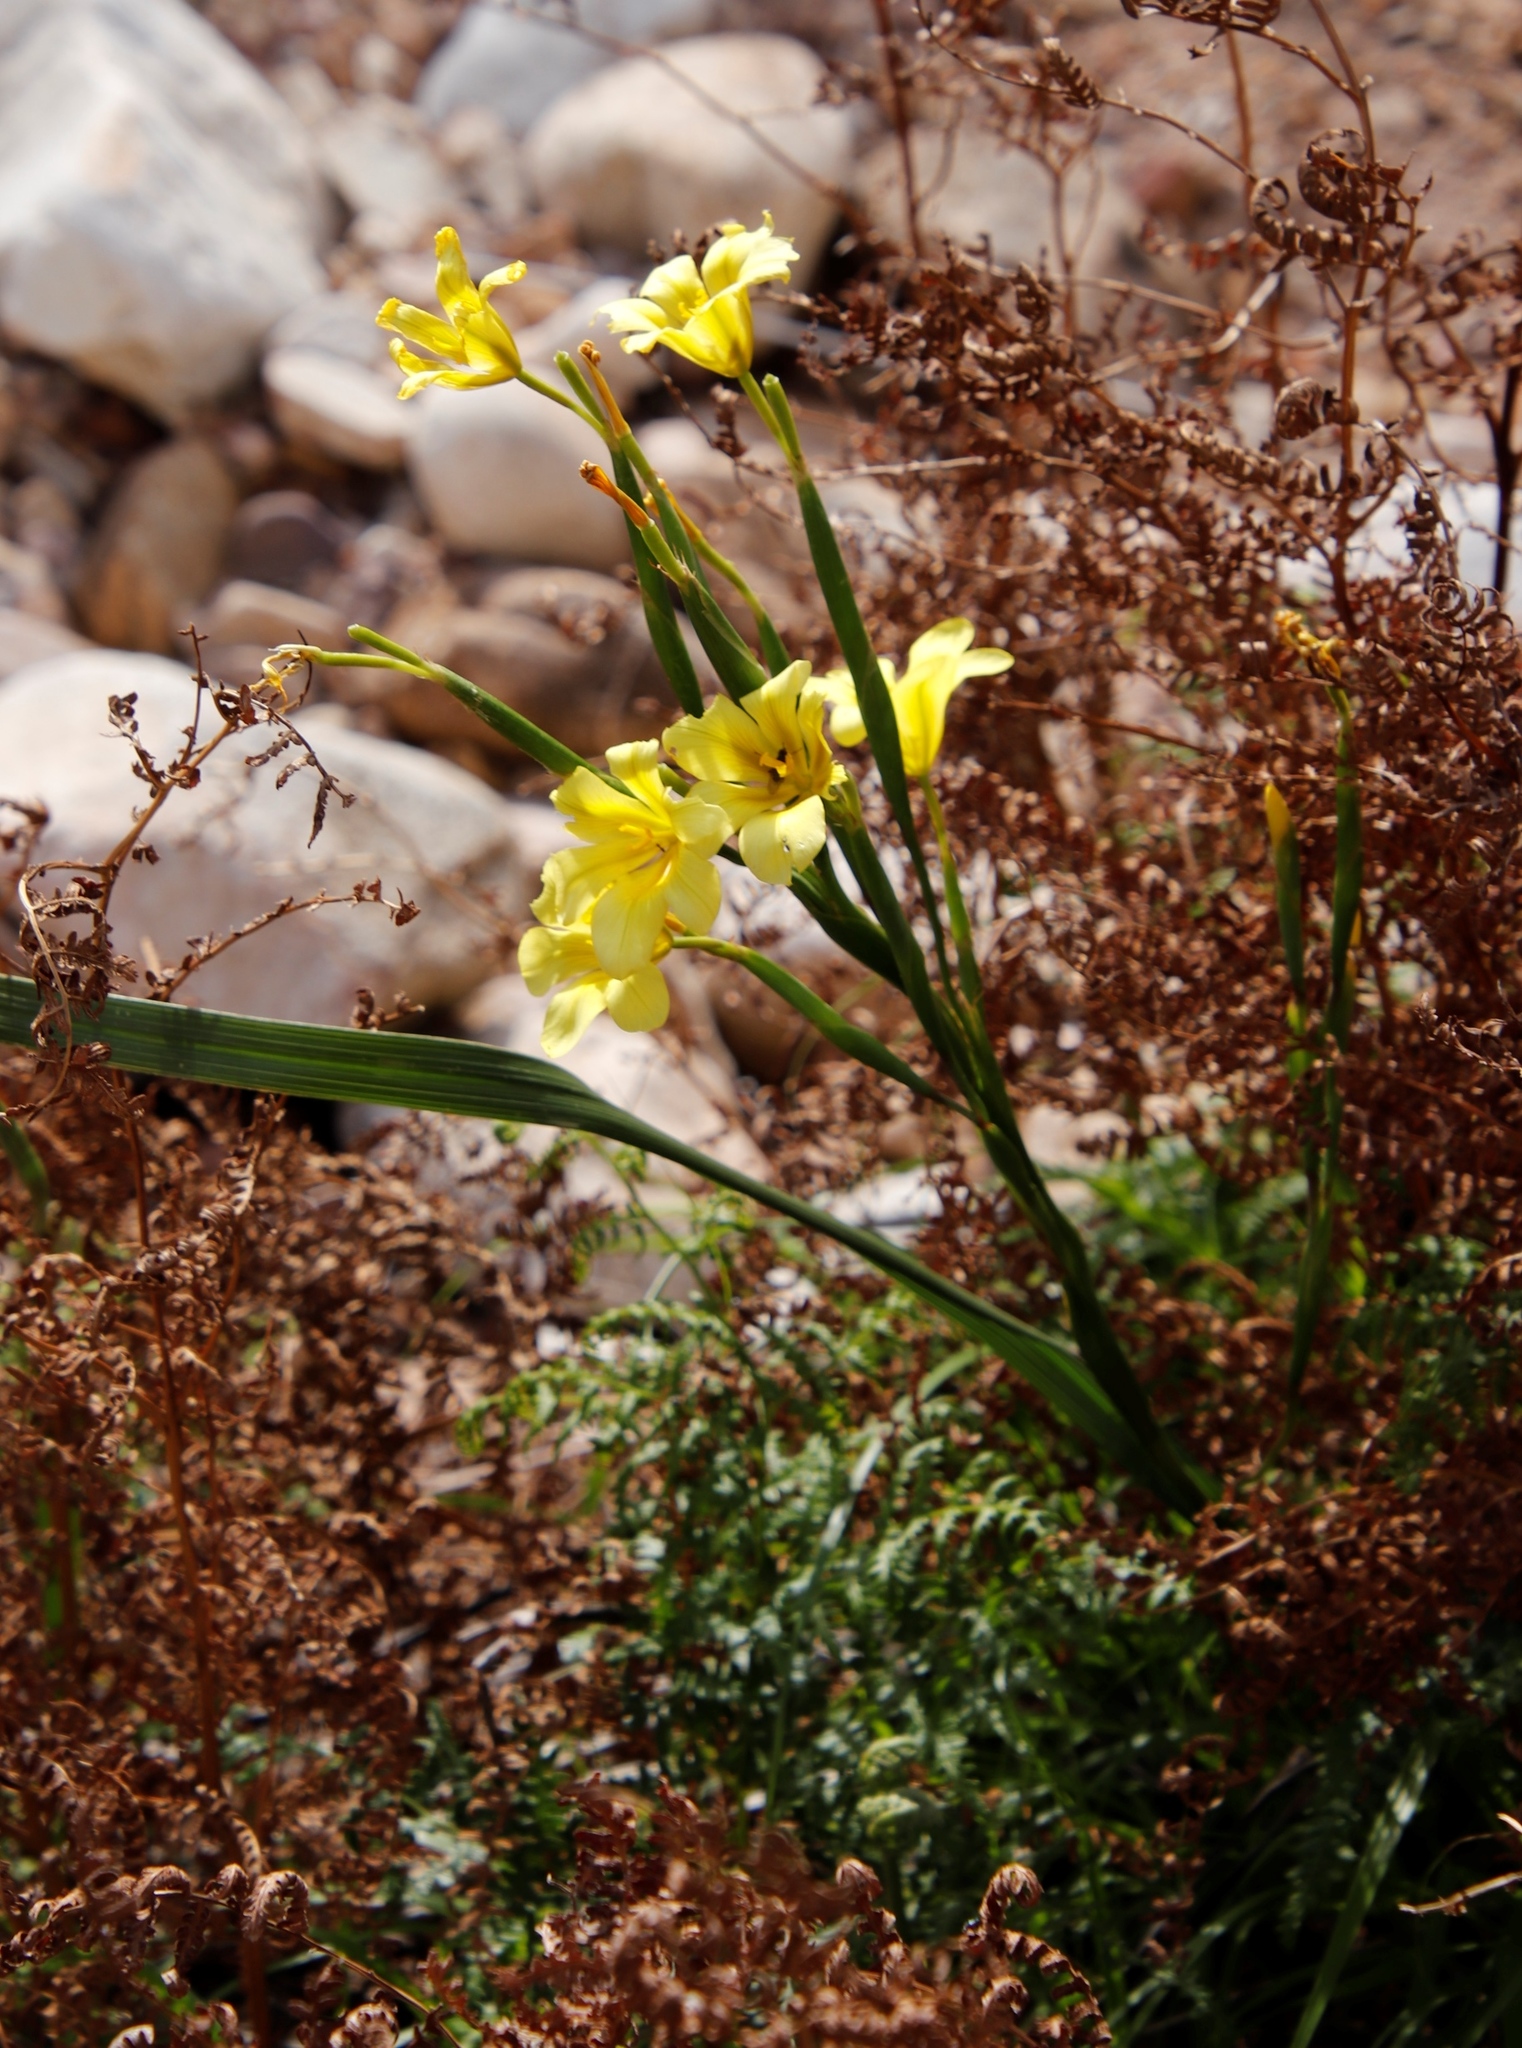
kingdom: Plantae
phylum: Tracheophyta
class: Liliopsida
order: Asparagales
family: Iridaceae
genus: Moraea
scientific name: Moraea ochroleuca
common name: Red tulp
